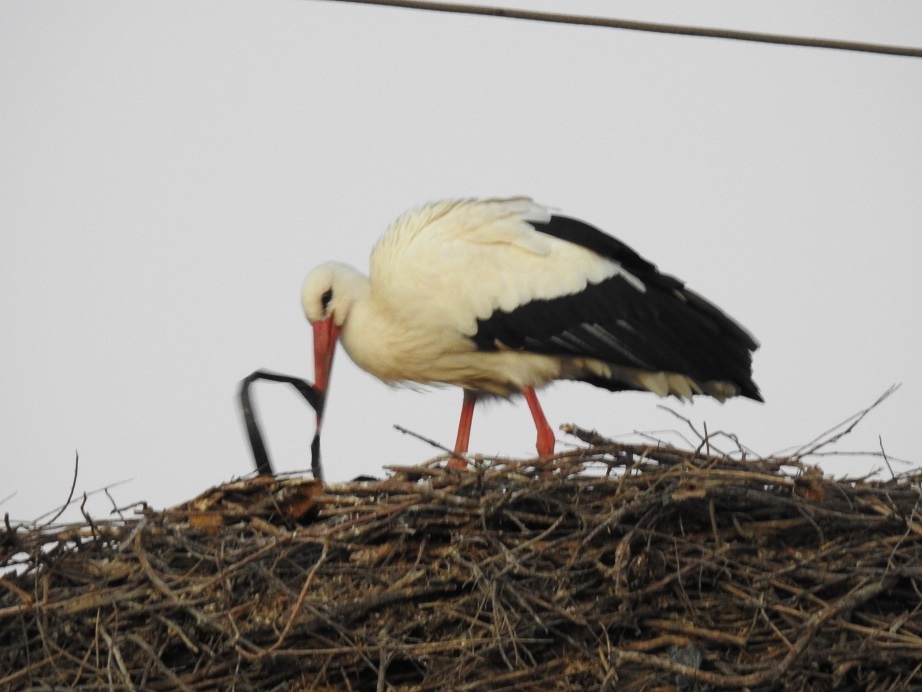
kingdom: Animalia
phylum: Chordata
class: Aves
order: Ciconiiformes
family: Ciconiidae
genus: Ciconia
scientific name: Ciconia ciconia
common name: White stork
